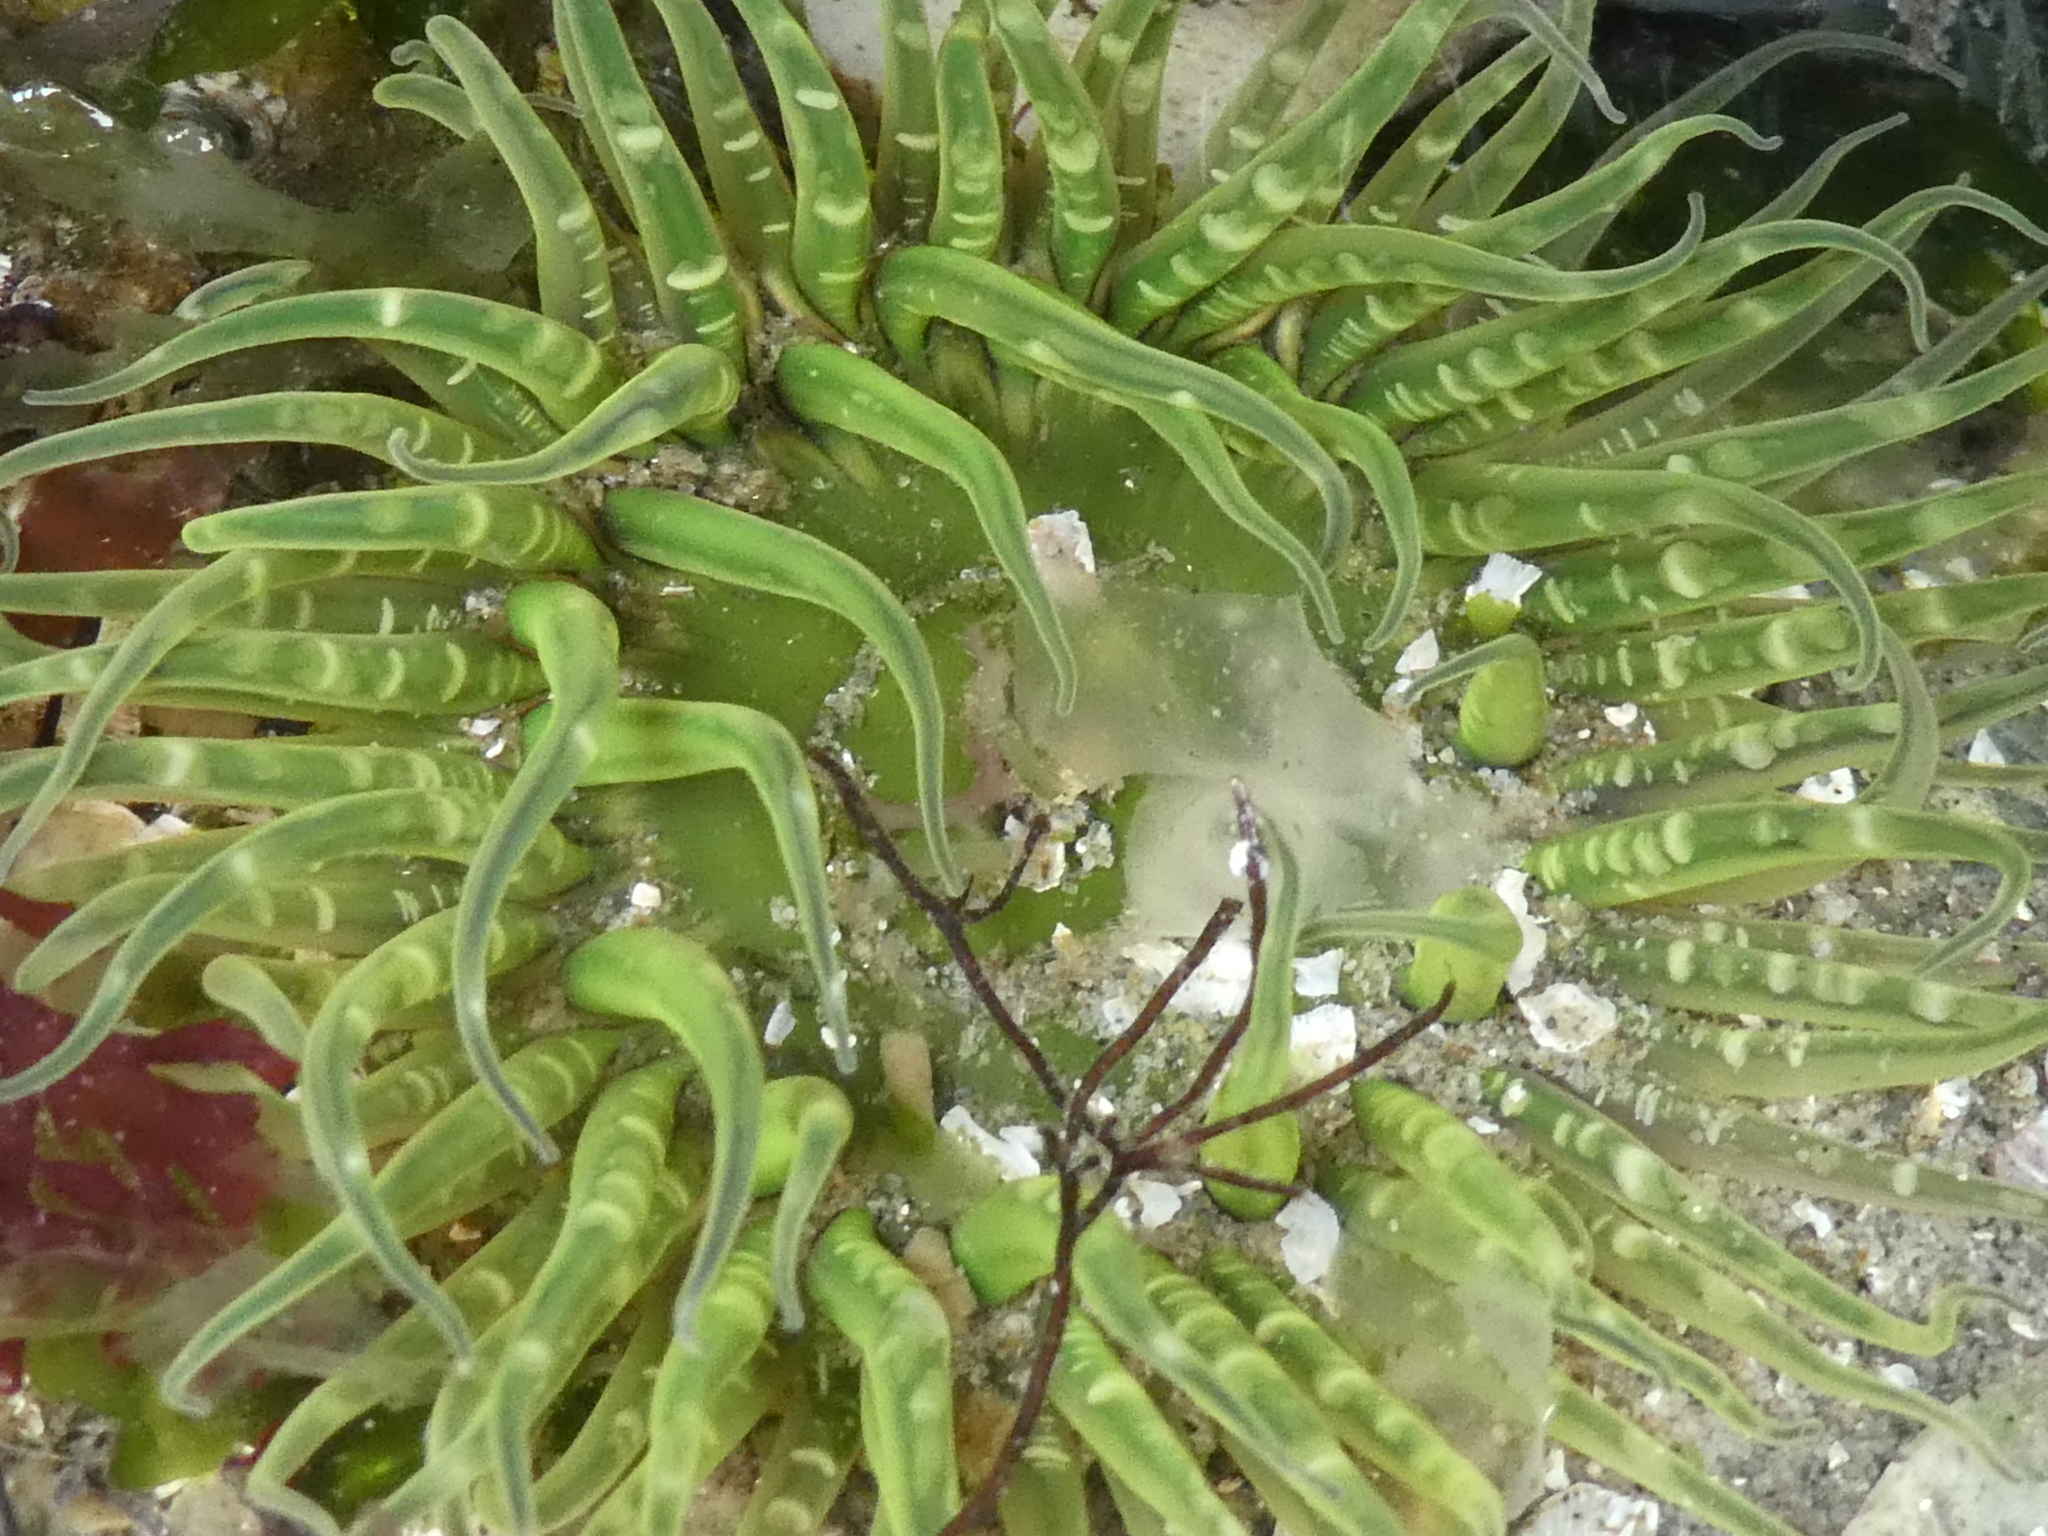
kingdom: Animalia
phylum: Cnidaria
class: Anthozoa
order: Actiniaria
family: Actiniidae
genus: Anthopleura
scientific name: Anthopleura artemisia
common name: Buried sea anemone
